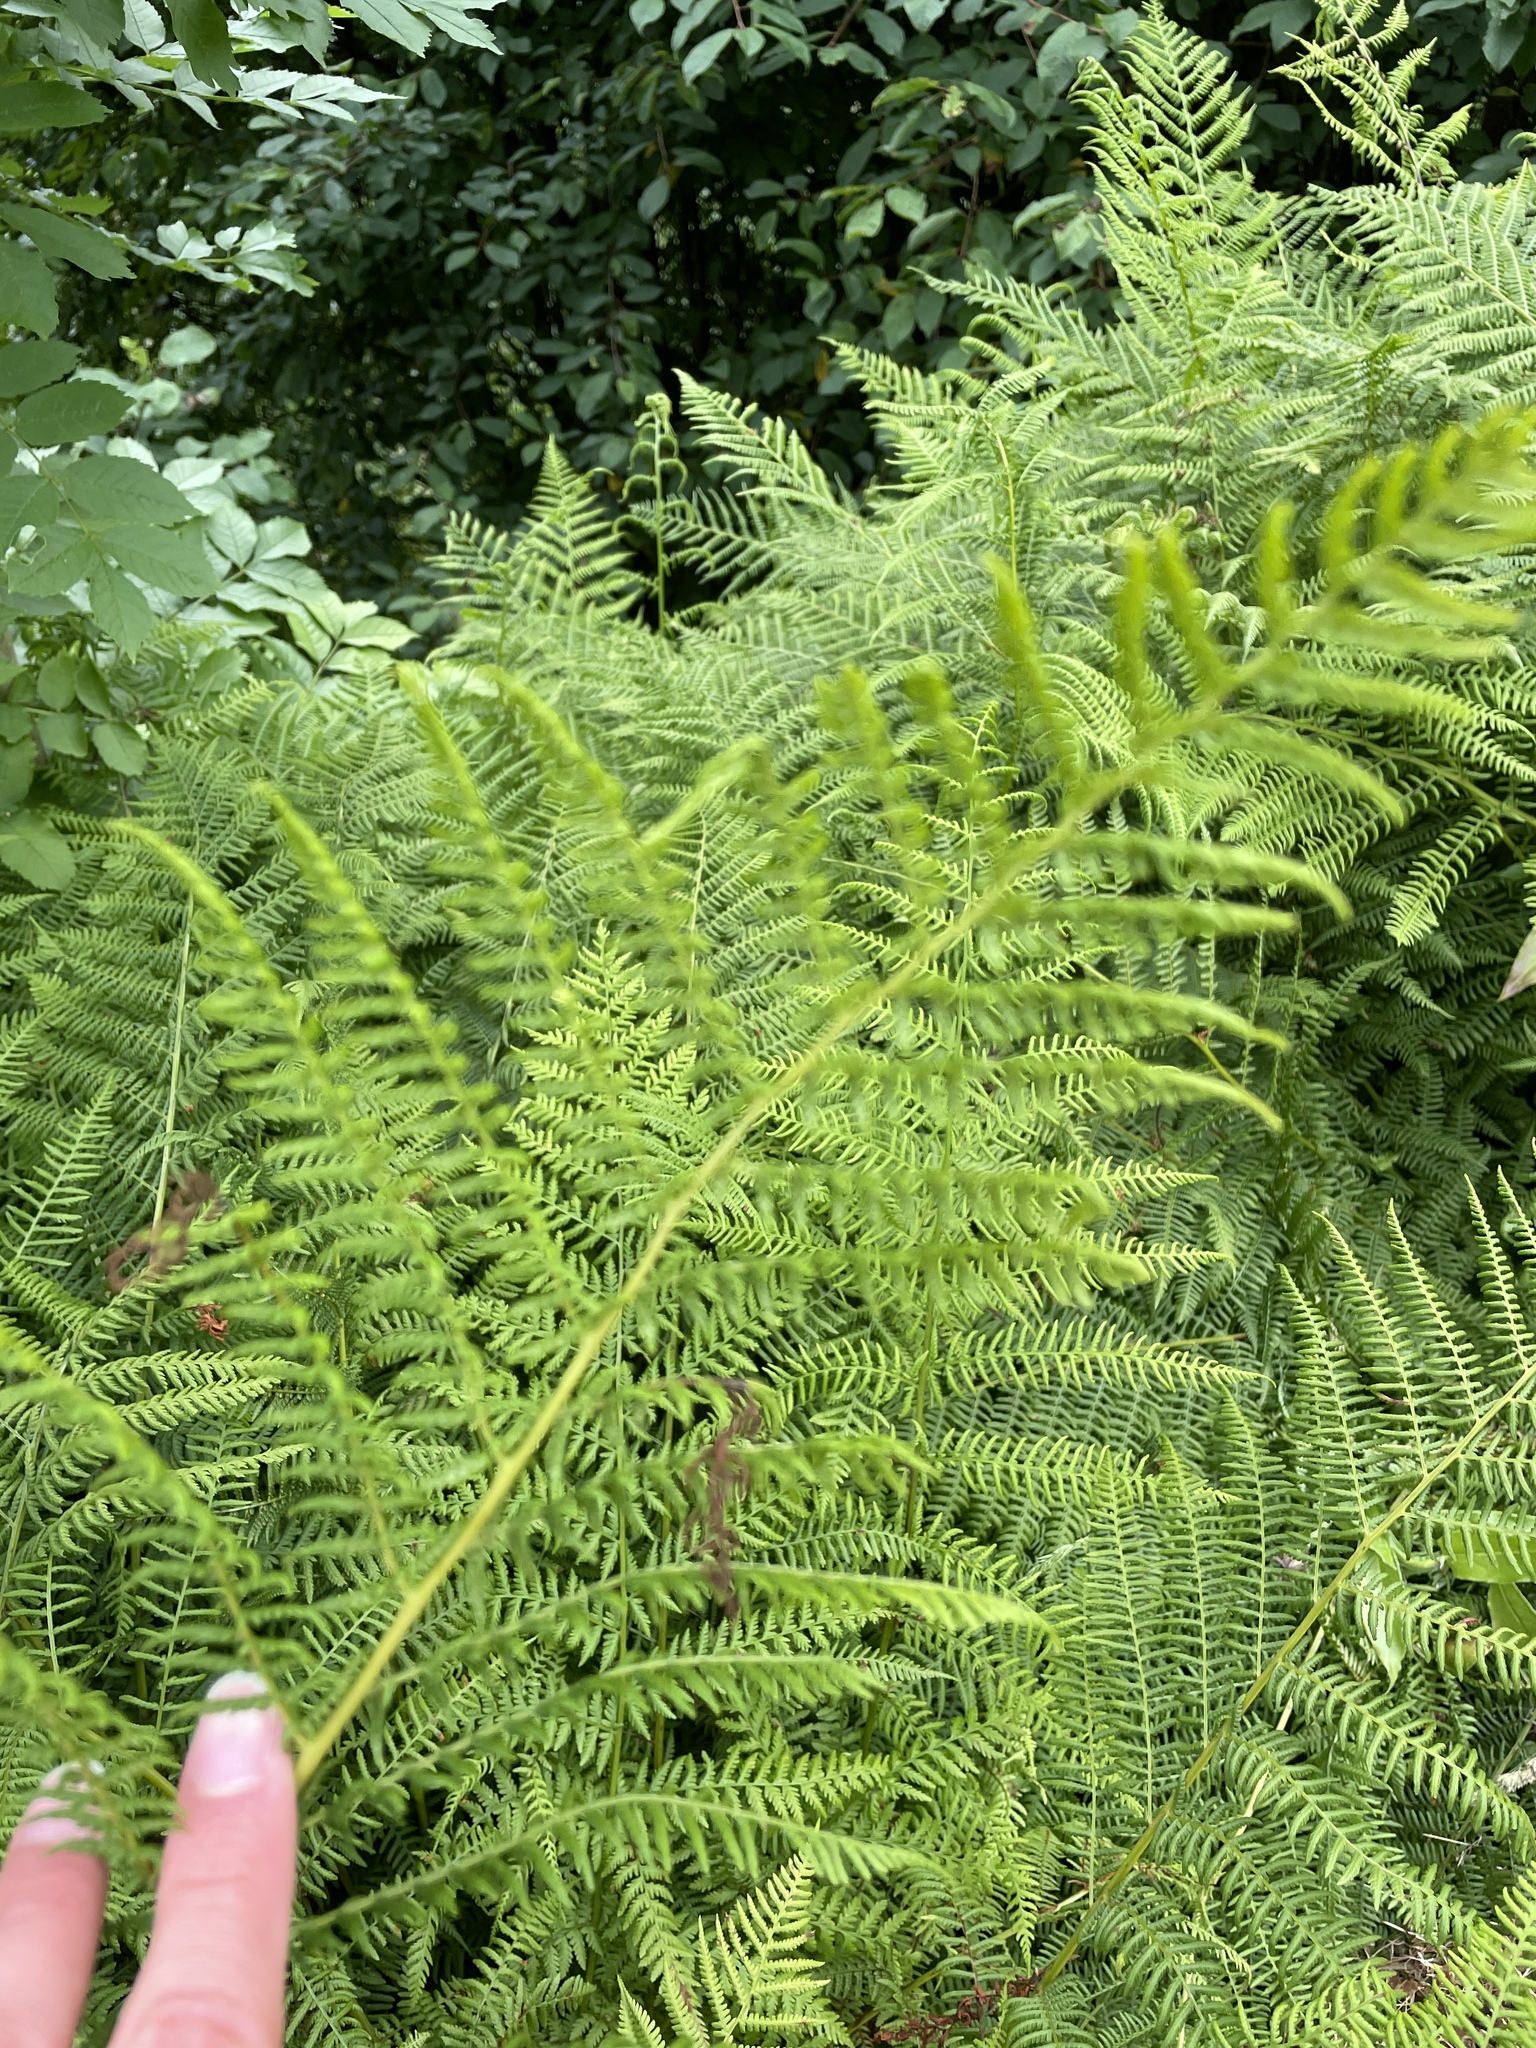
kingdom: Plantae
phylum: Tracheophyta
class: Polypodiopsida
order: Polypodiales
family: Athyriaceae
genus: Athyrium
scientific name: Athyrium filix-femina
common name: Lady fern
